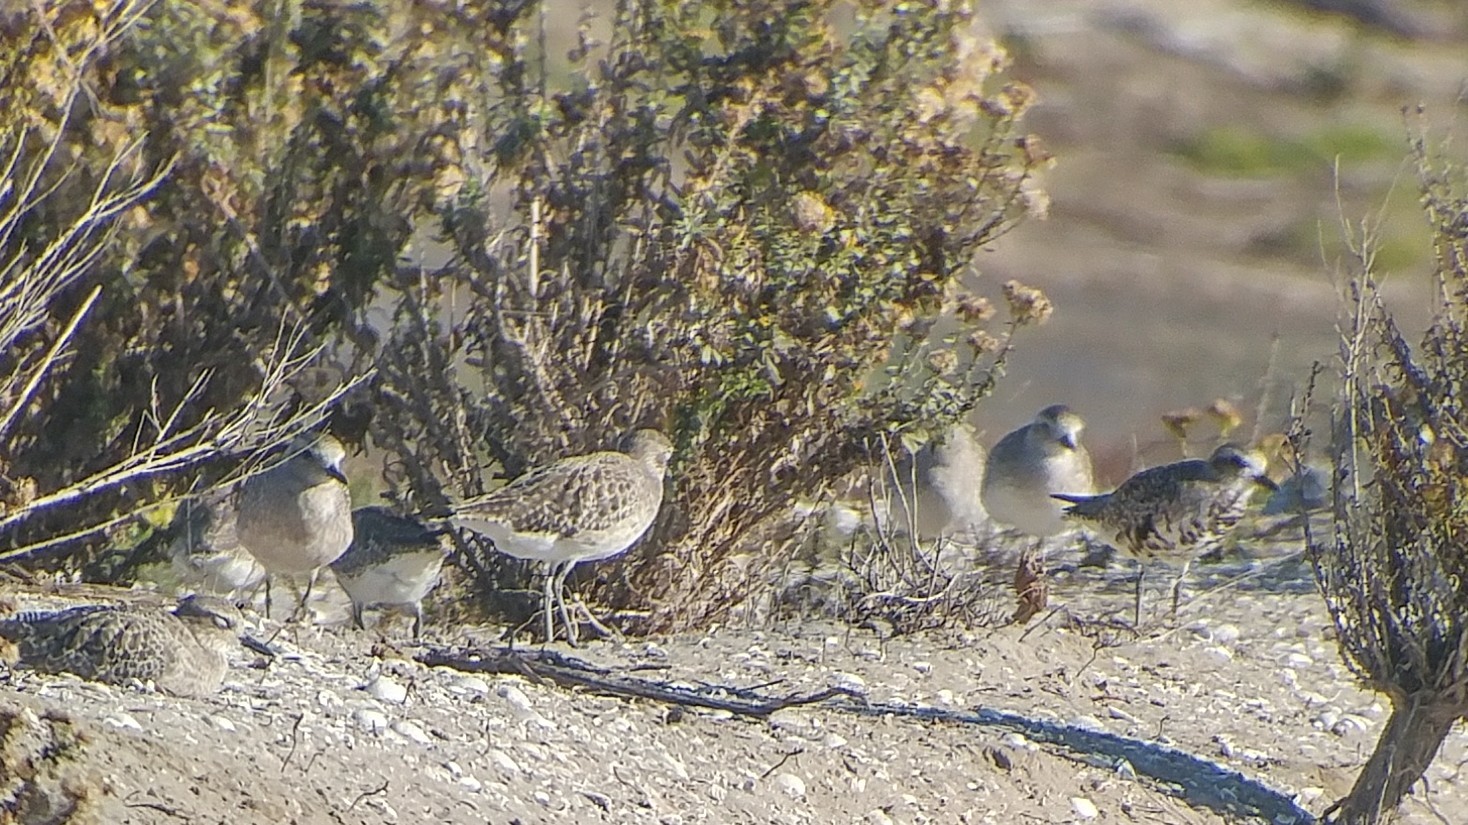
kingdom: Animalia
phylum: Chordata
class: Aves
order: Charadriiformes
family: Charadriidae
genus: Pluvialis
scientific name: Pluvialis squatarola
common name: Grey plover
